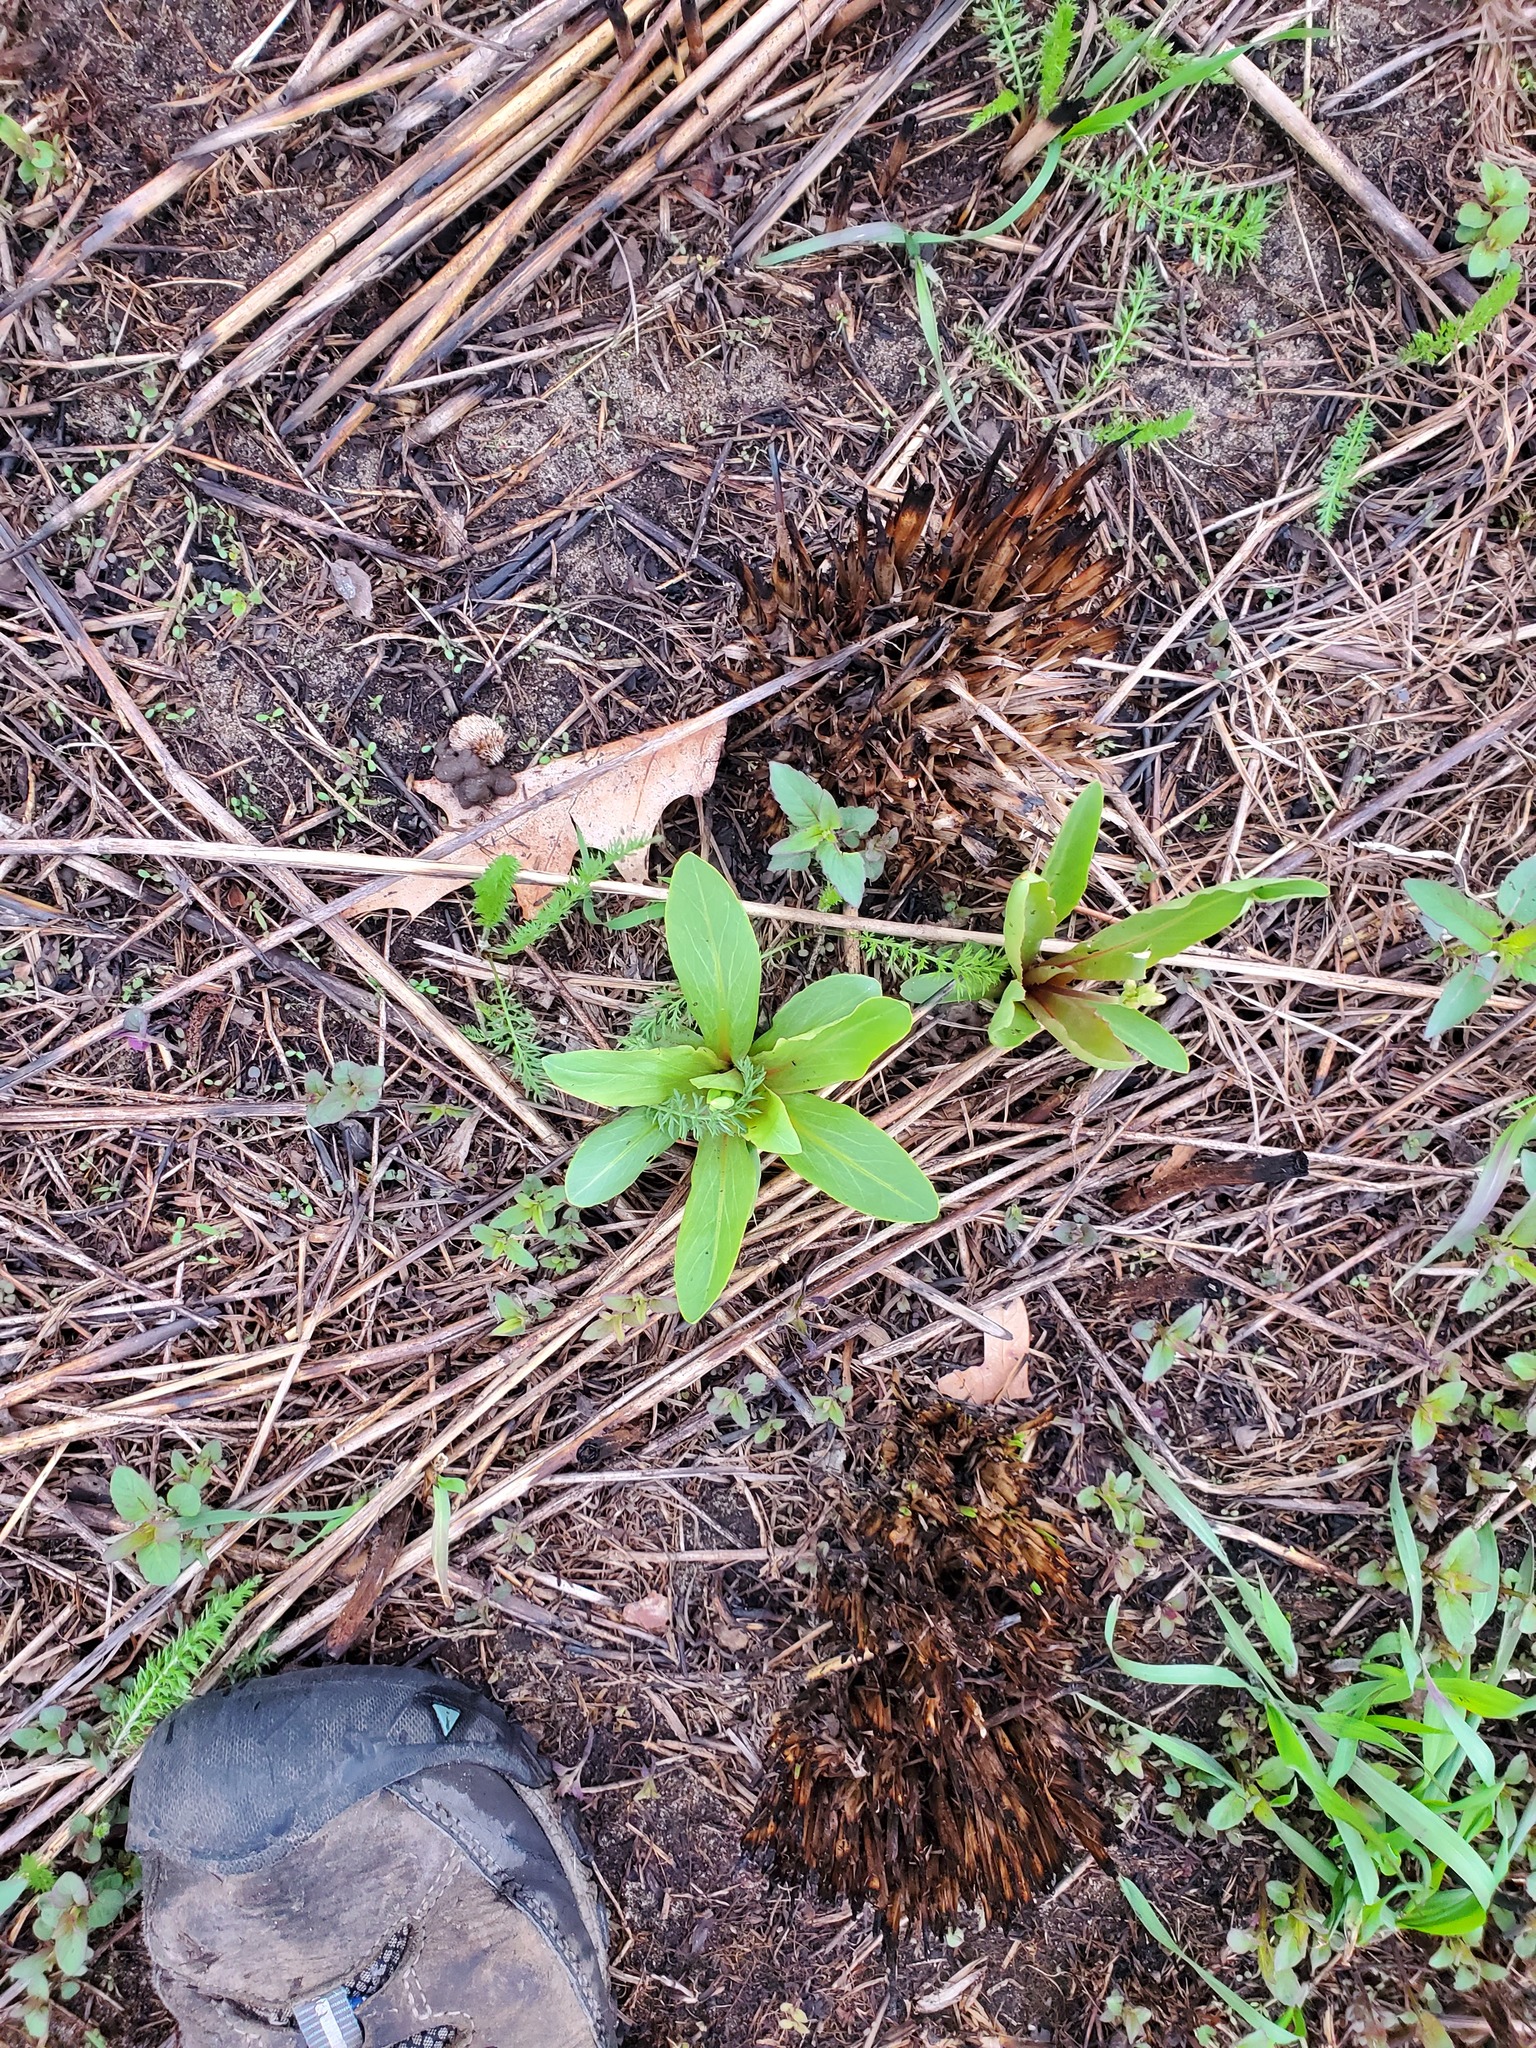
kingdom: Plantae
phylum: Tracheophyta
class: Magnoliopsida
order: Ericales
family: Primulaceae
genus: Dodecatheon
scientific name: Dodecatheon meadia
